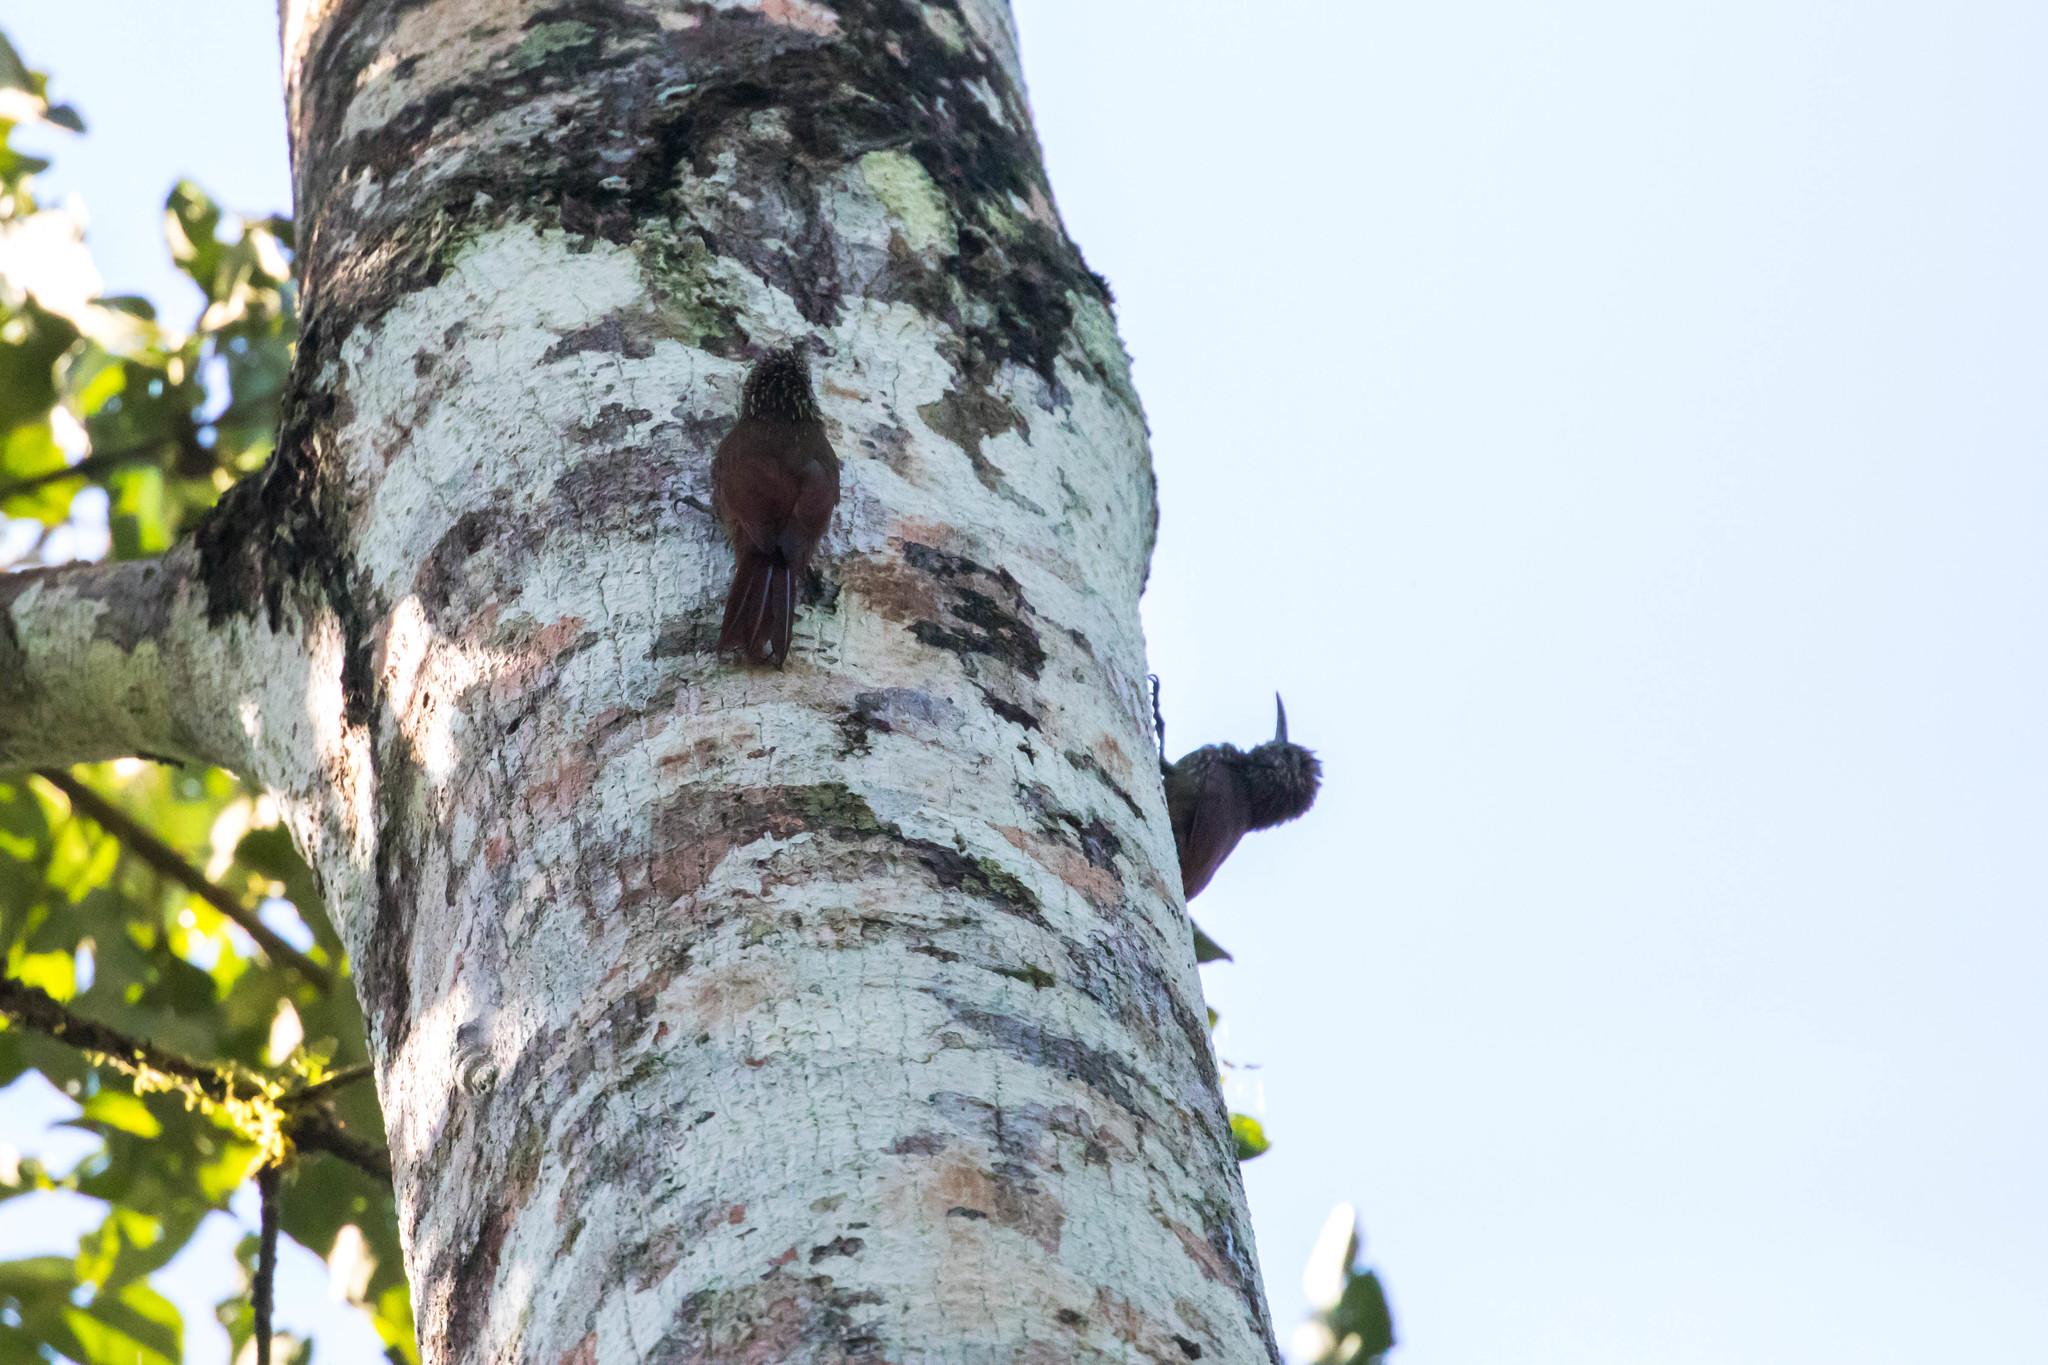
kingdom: Animalia
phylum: Chordata
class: Aves
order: Passeriformes
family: Furnariidae
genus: Lepidocolaptes
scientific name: Lepidocolaptes souleyetii
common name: Streak-headed woodcreeper
